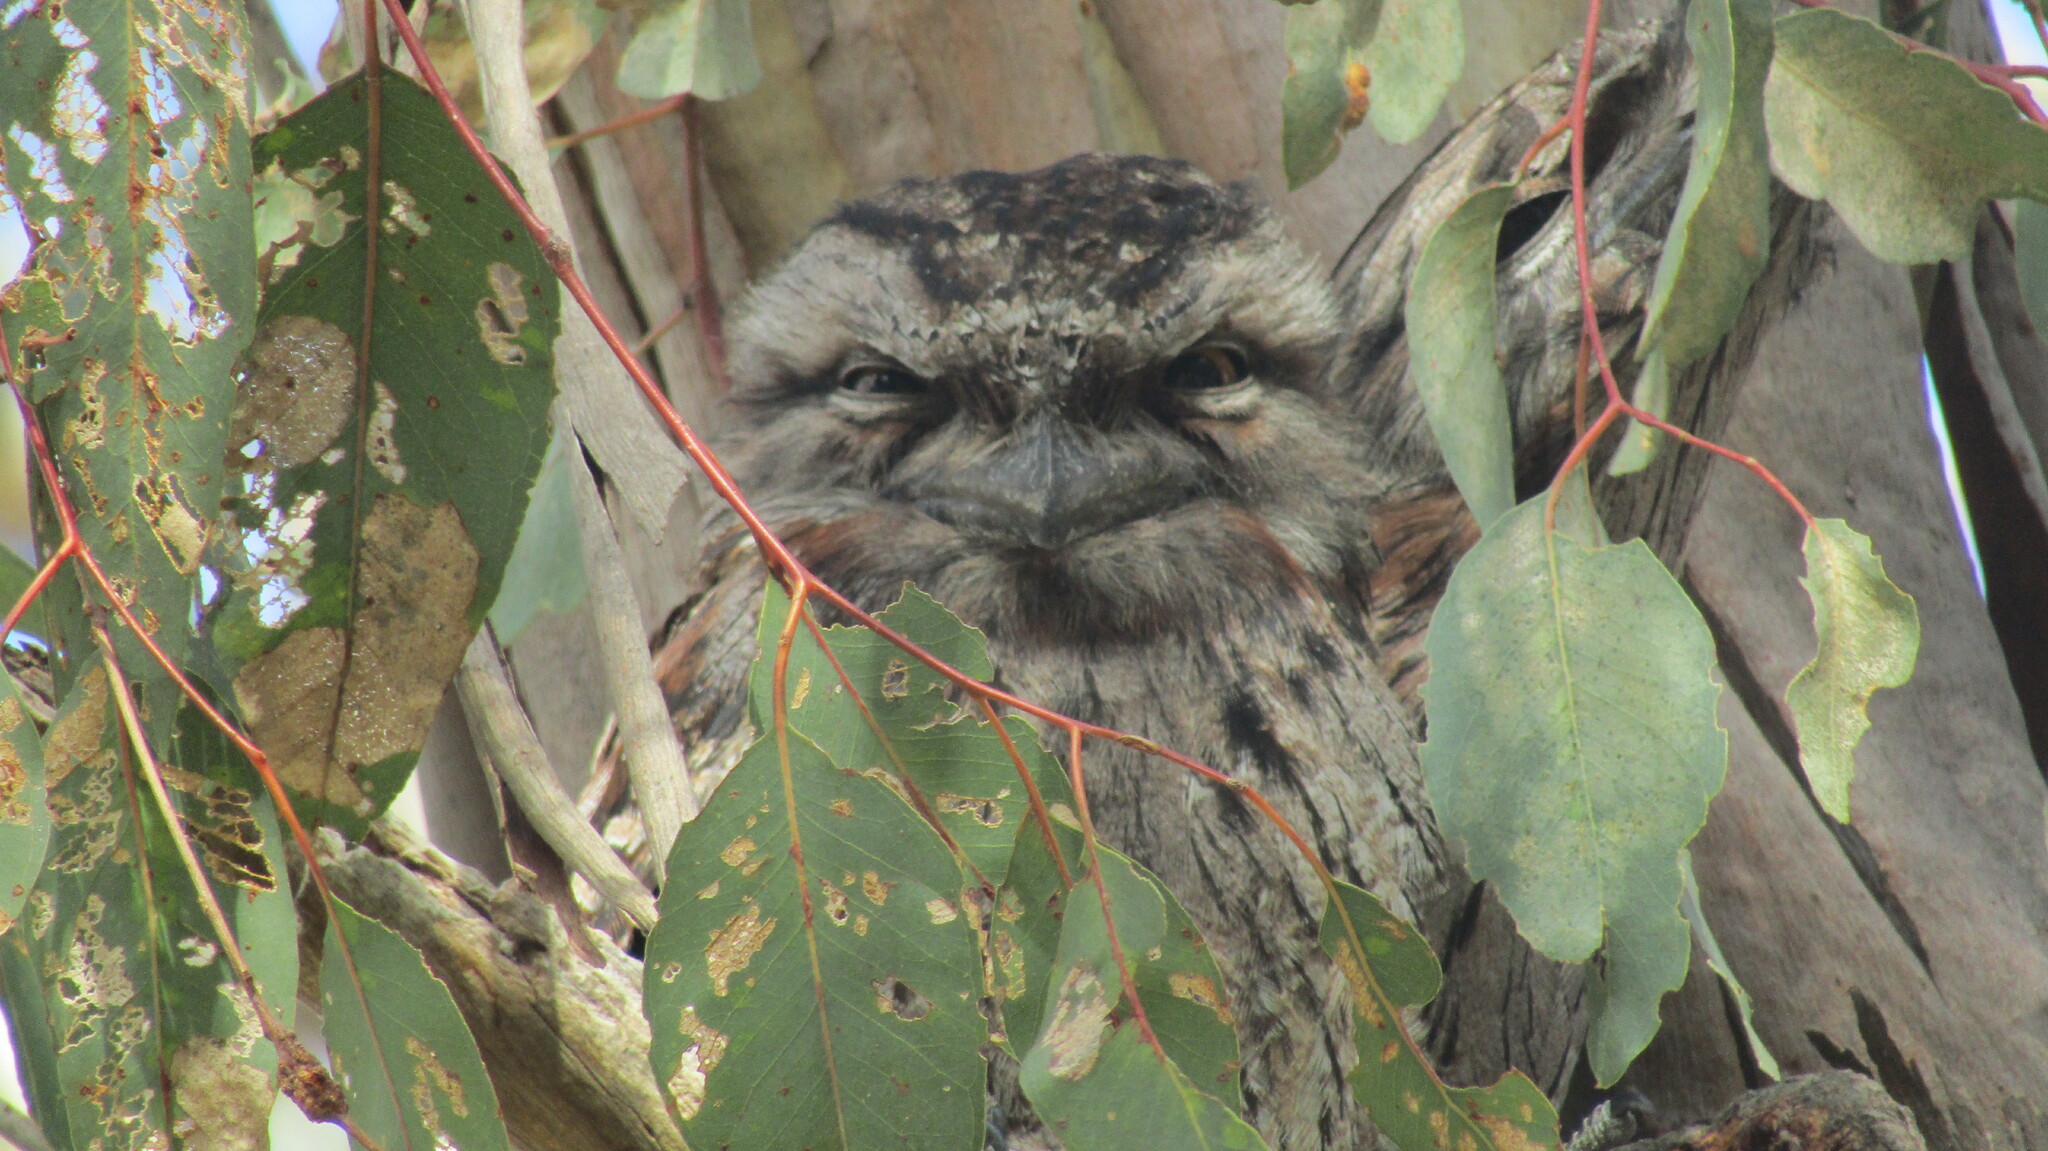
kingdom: Animalia
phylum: Chordata
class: Aves
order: Caprimulgiformes
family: Podargidae
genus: Podargus
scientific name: Podargus strigoides
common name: Tawny frogmouth
